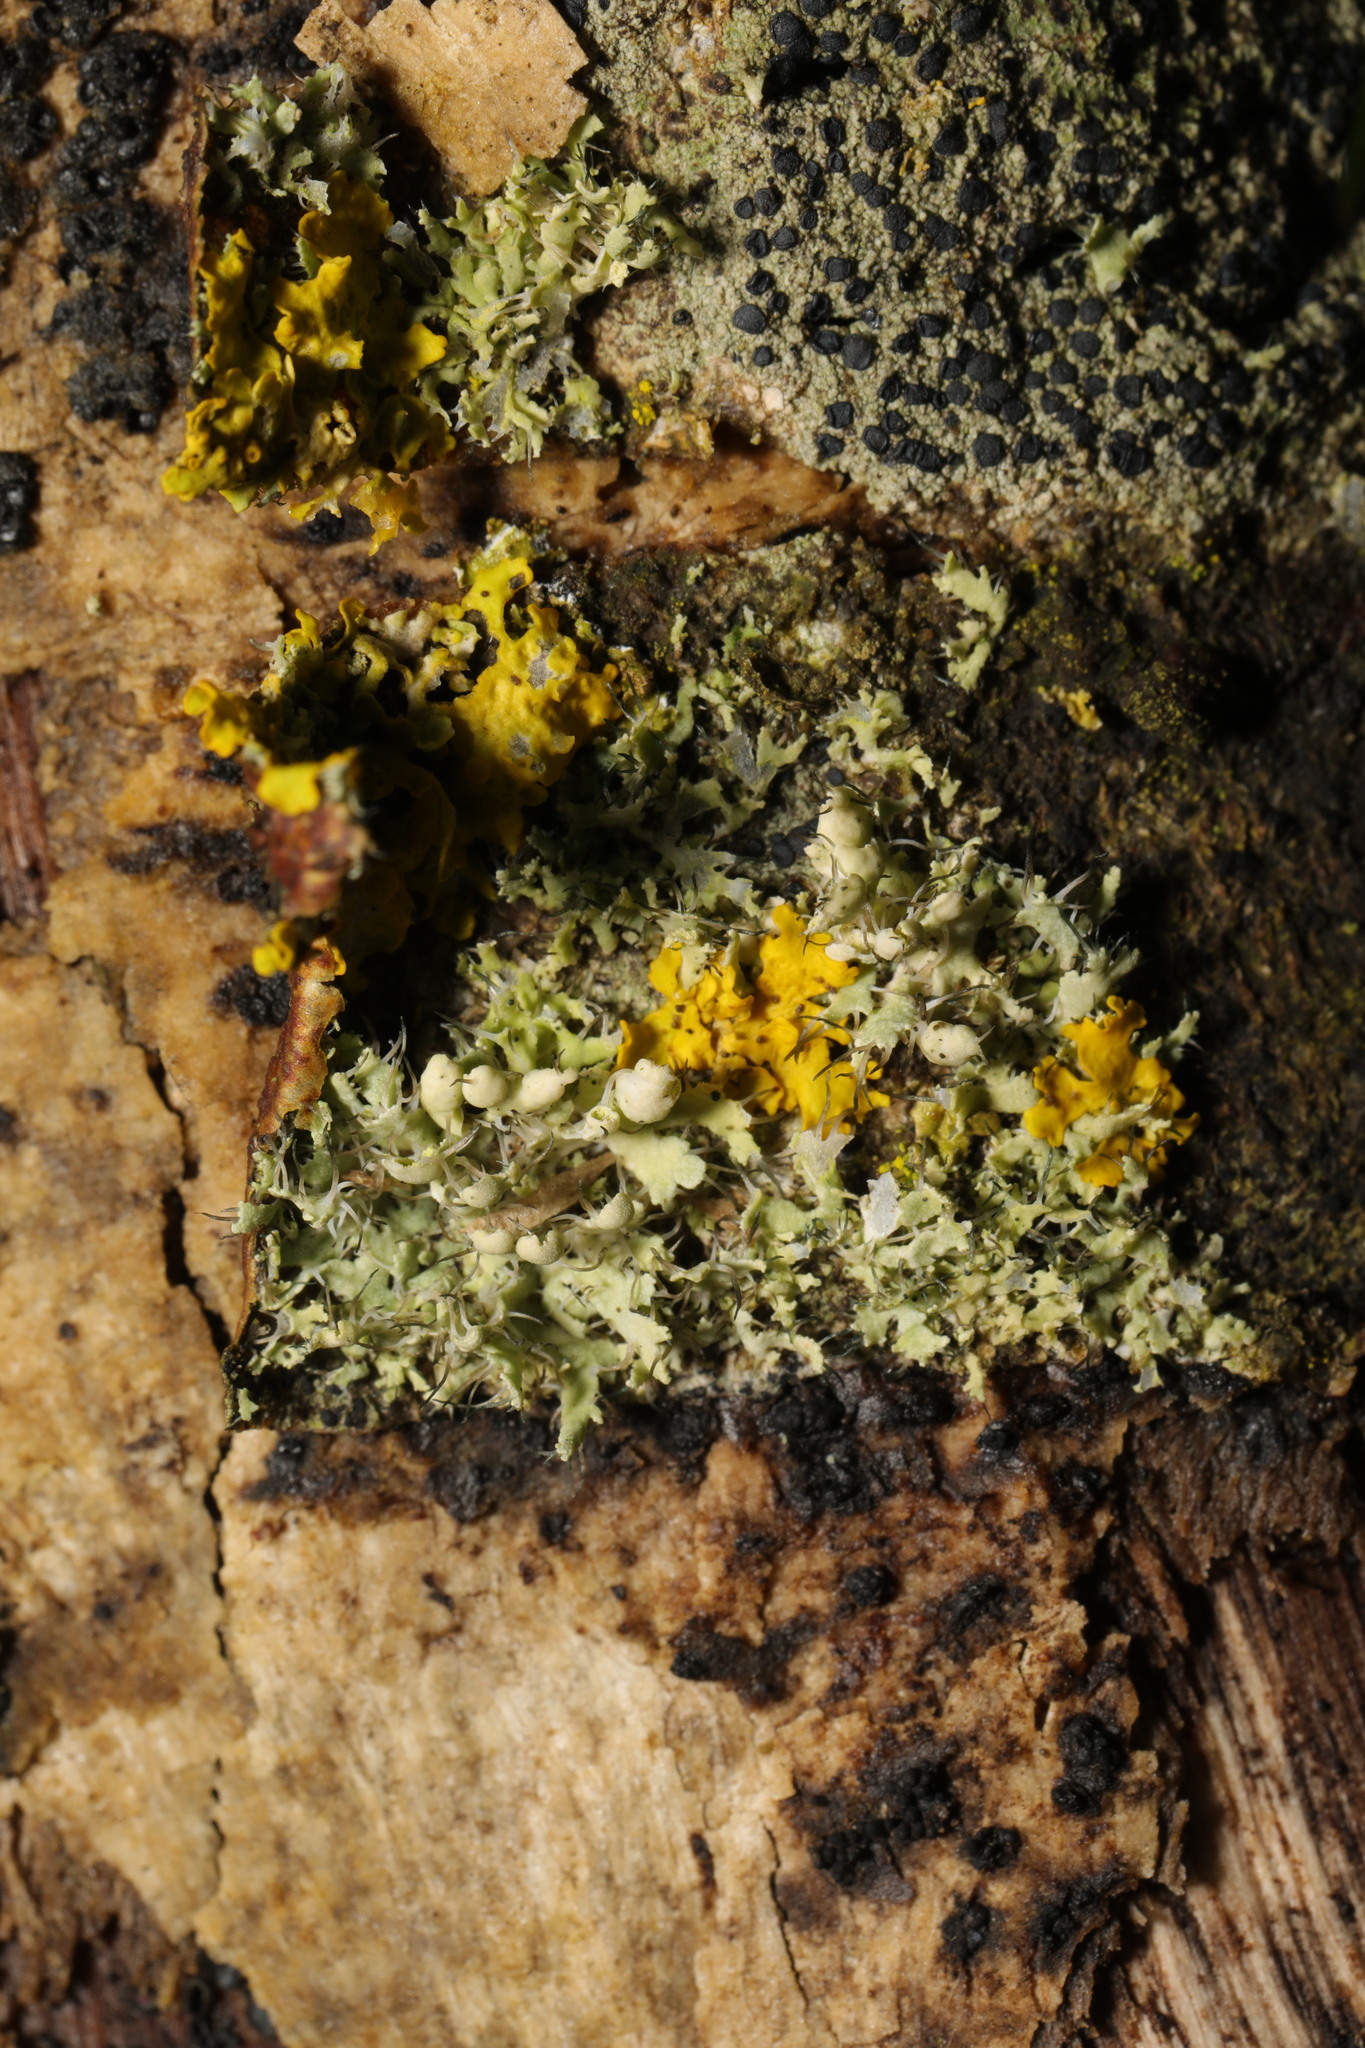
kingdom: Fungi
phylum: Ascomycota
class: Lecanoromycetes
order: Caliciales
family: Physciaceae
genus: Physcia
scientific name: Physcia adscendens
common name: Hooded rosette lichen
